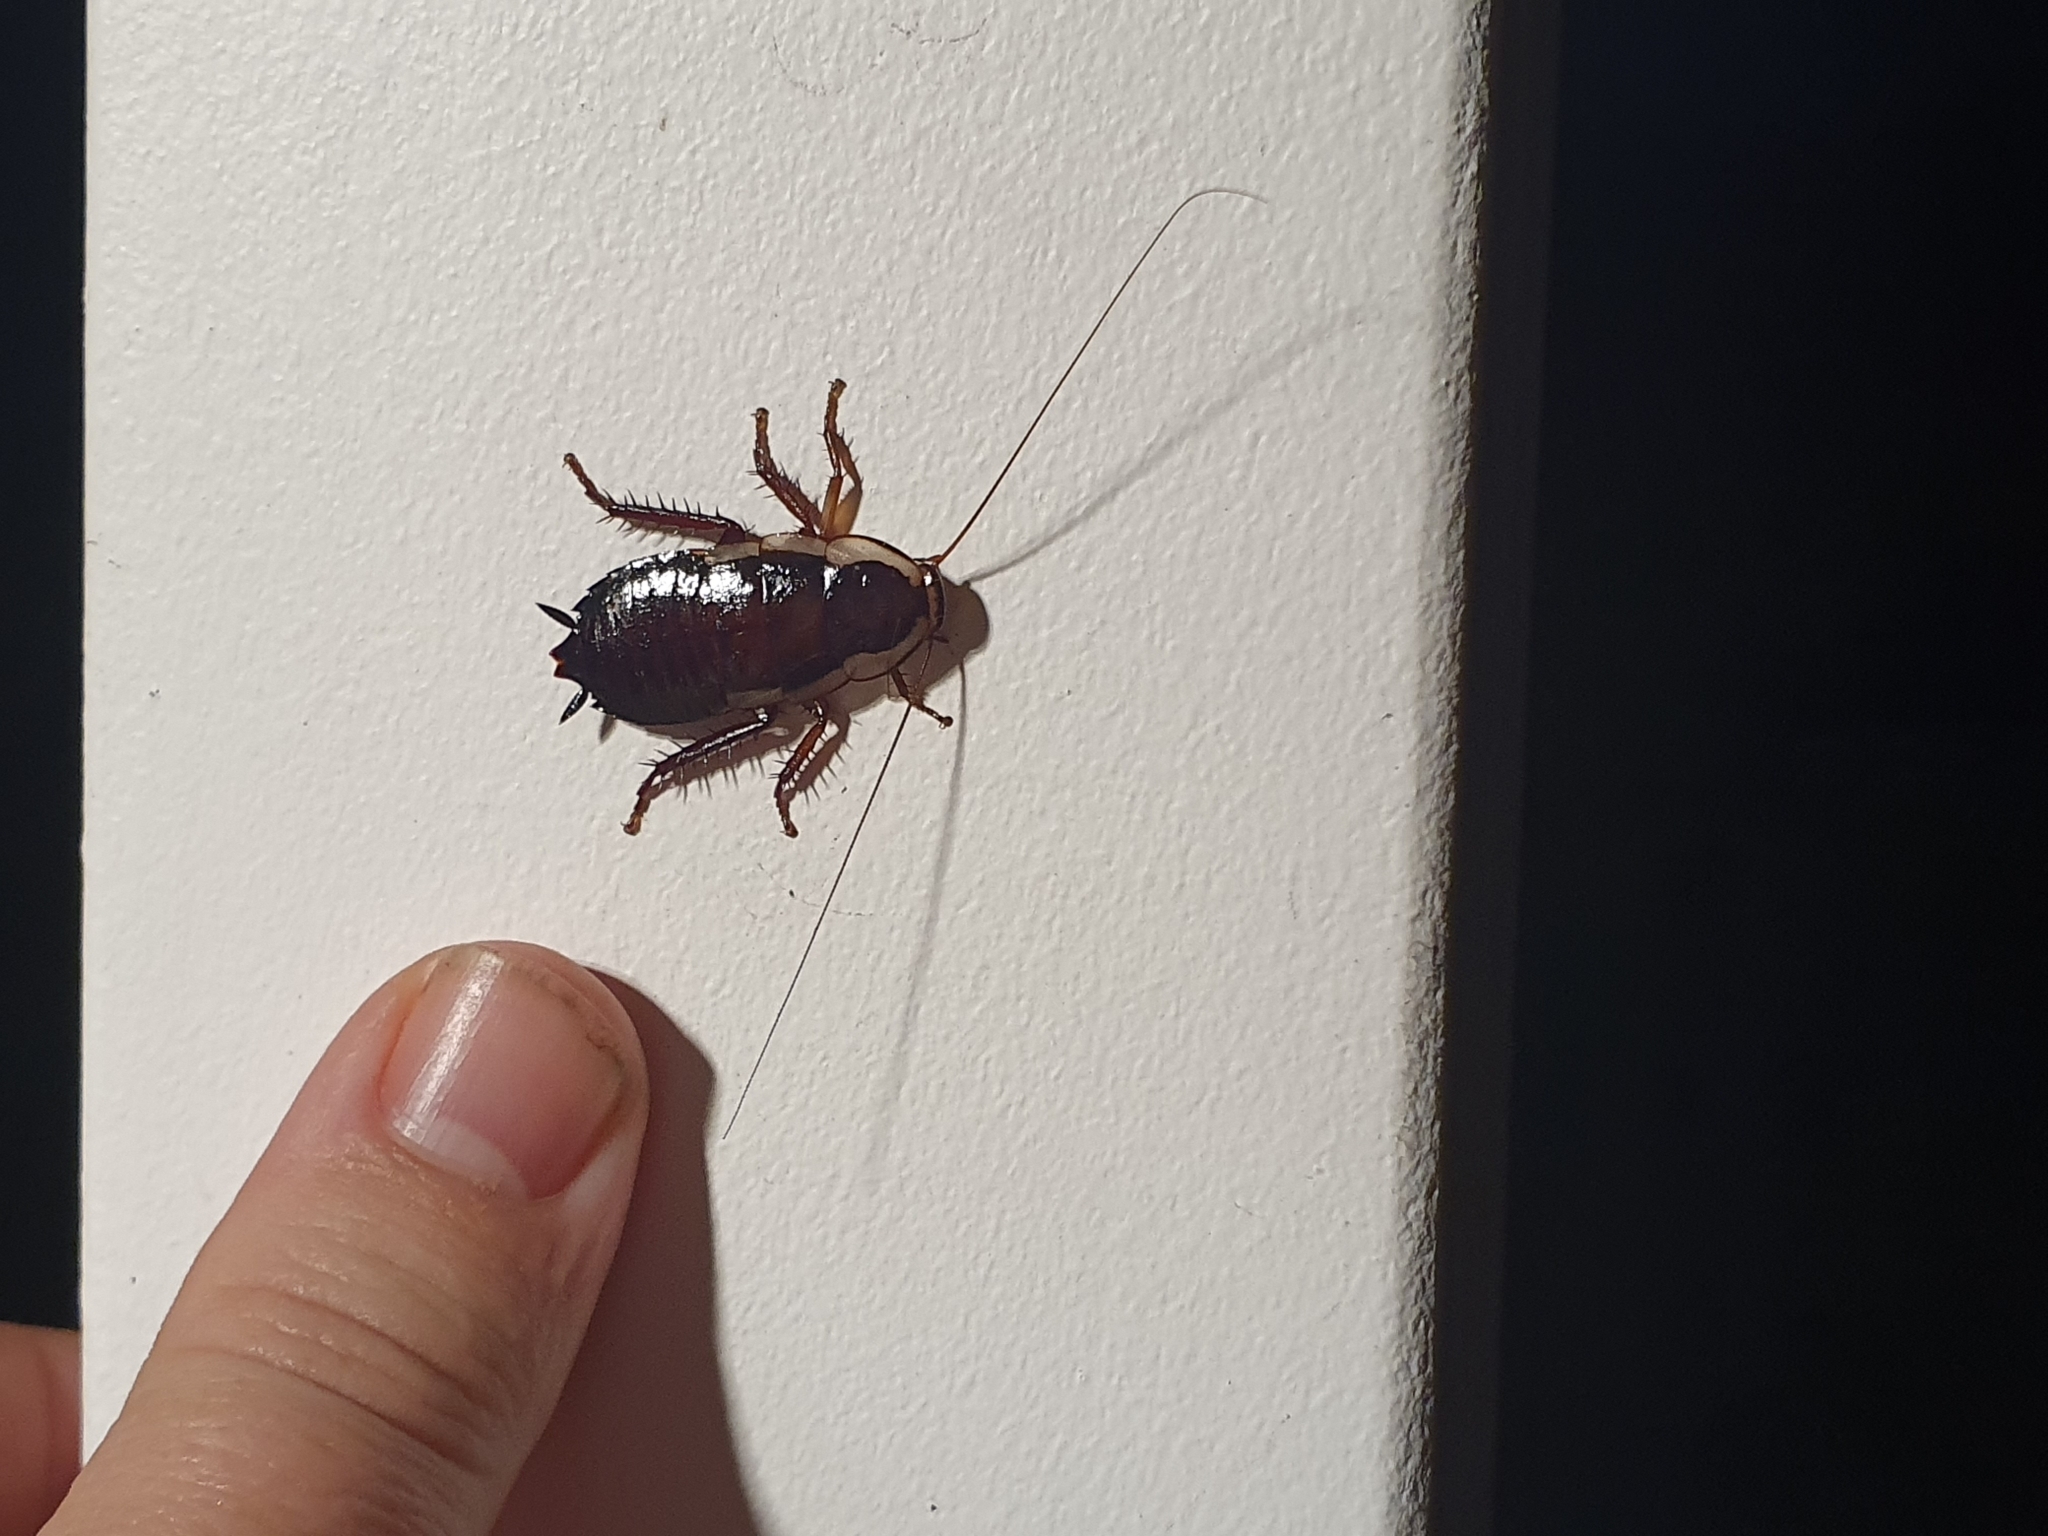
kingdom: Animalia
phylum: Arthropoda
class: Insecta
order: Blattodea
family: Blattidae
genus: Drymaplaneta
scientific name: Drymaplaneta semivitta
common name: Gisborne cockroach
